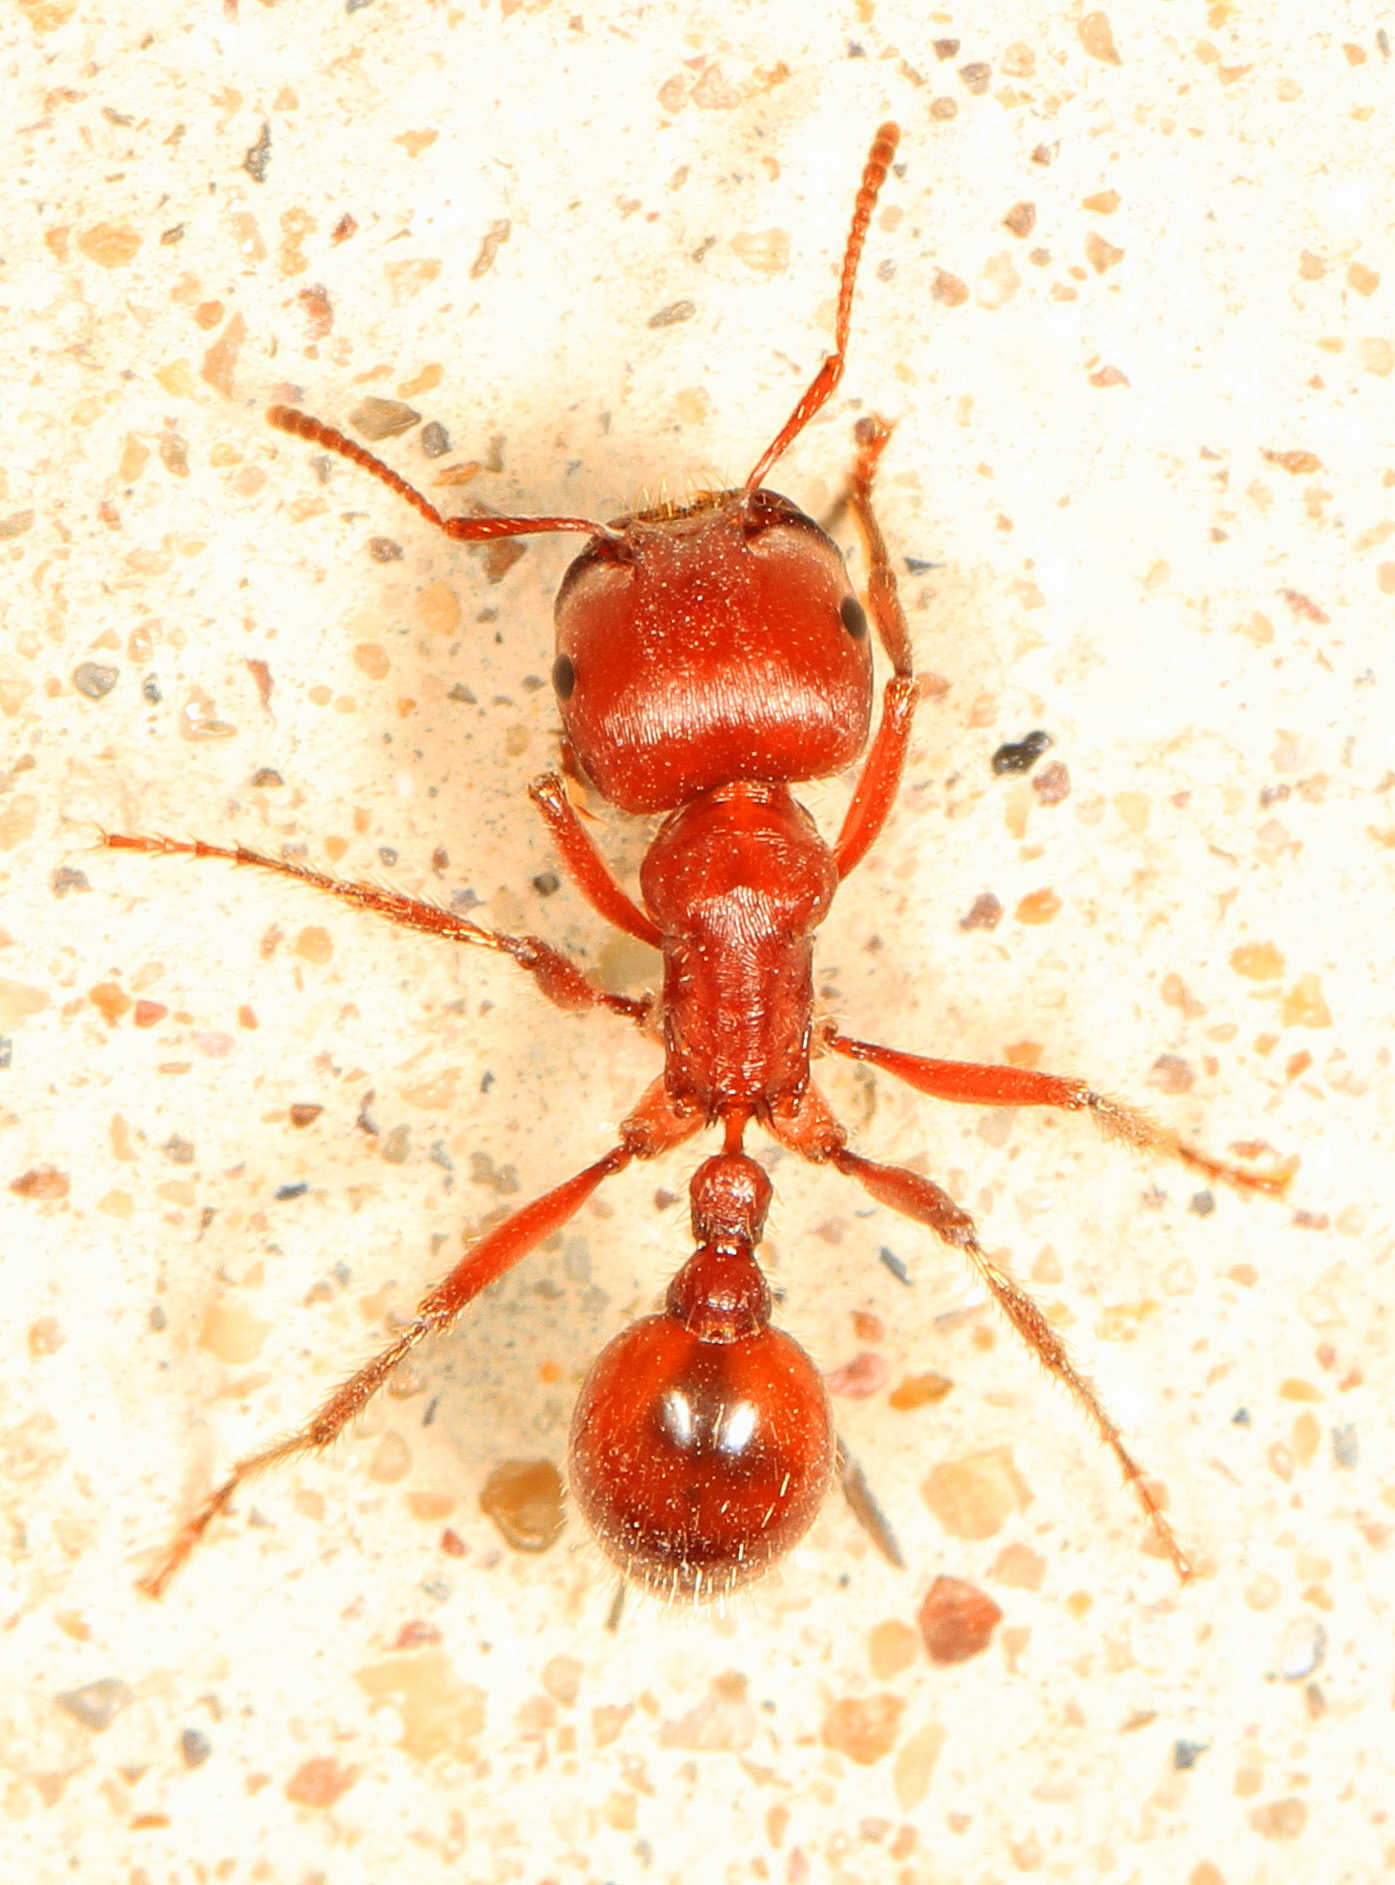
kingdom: Animalia
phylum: Arthropoda
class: Insecta
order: Hymenoptera
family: Formicidae
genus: Pogonomyrmex
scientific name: Pogonomyrmex barbatus
